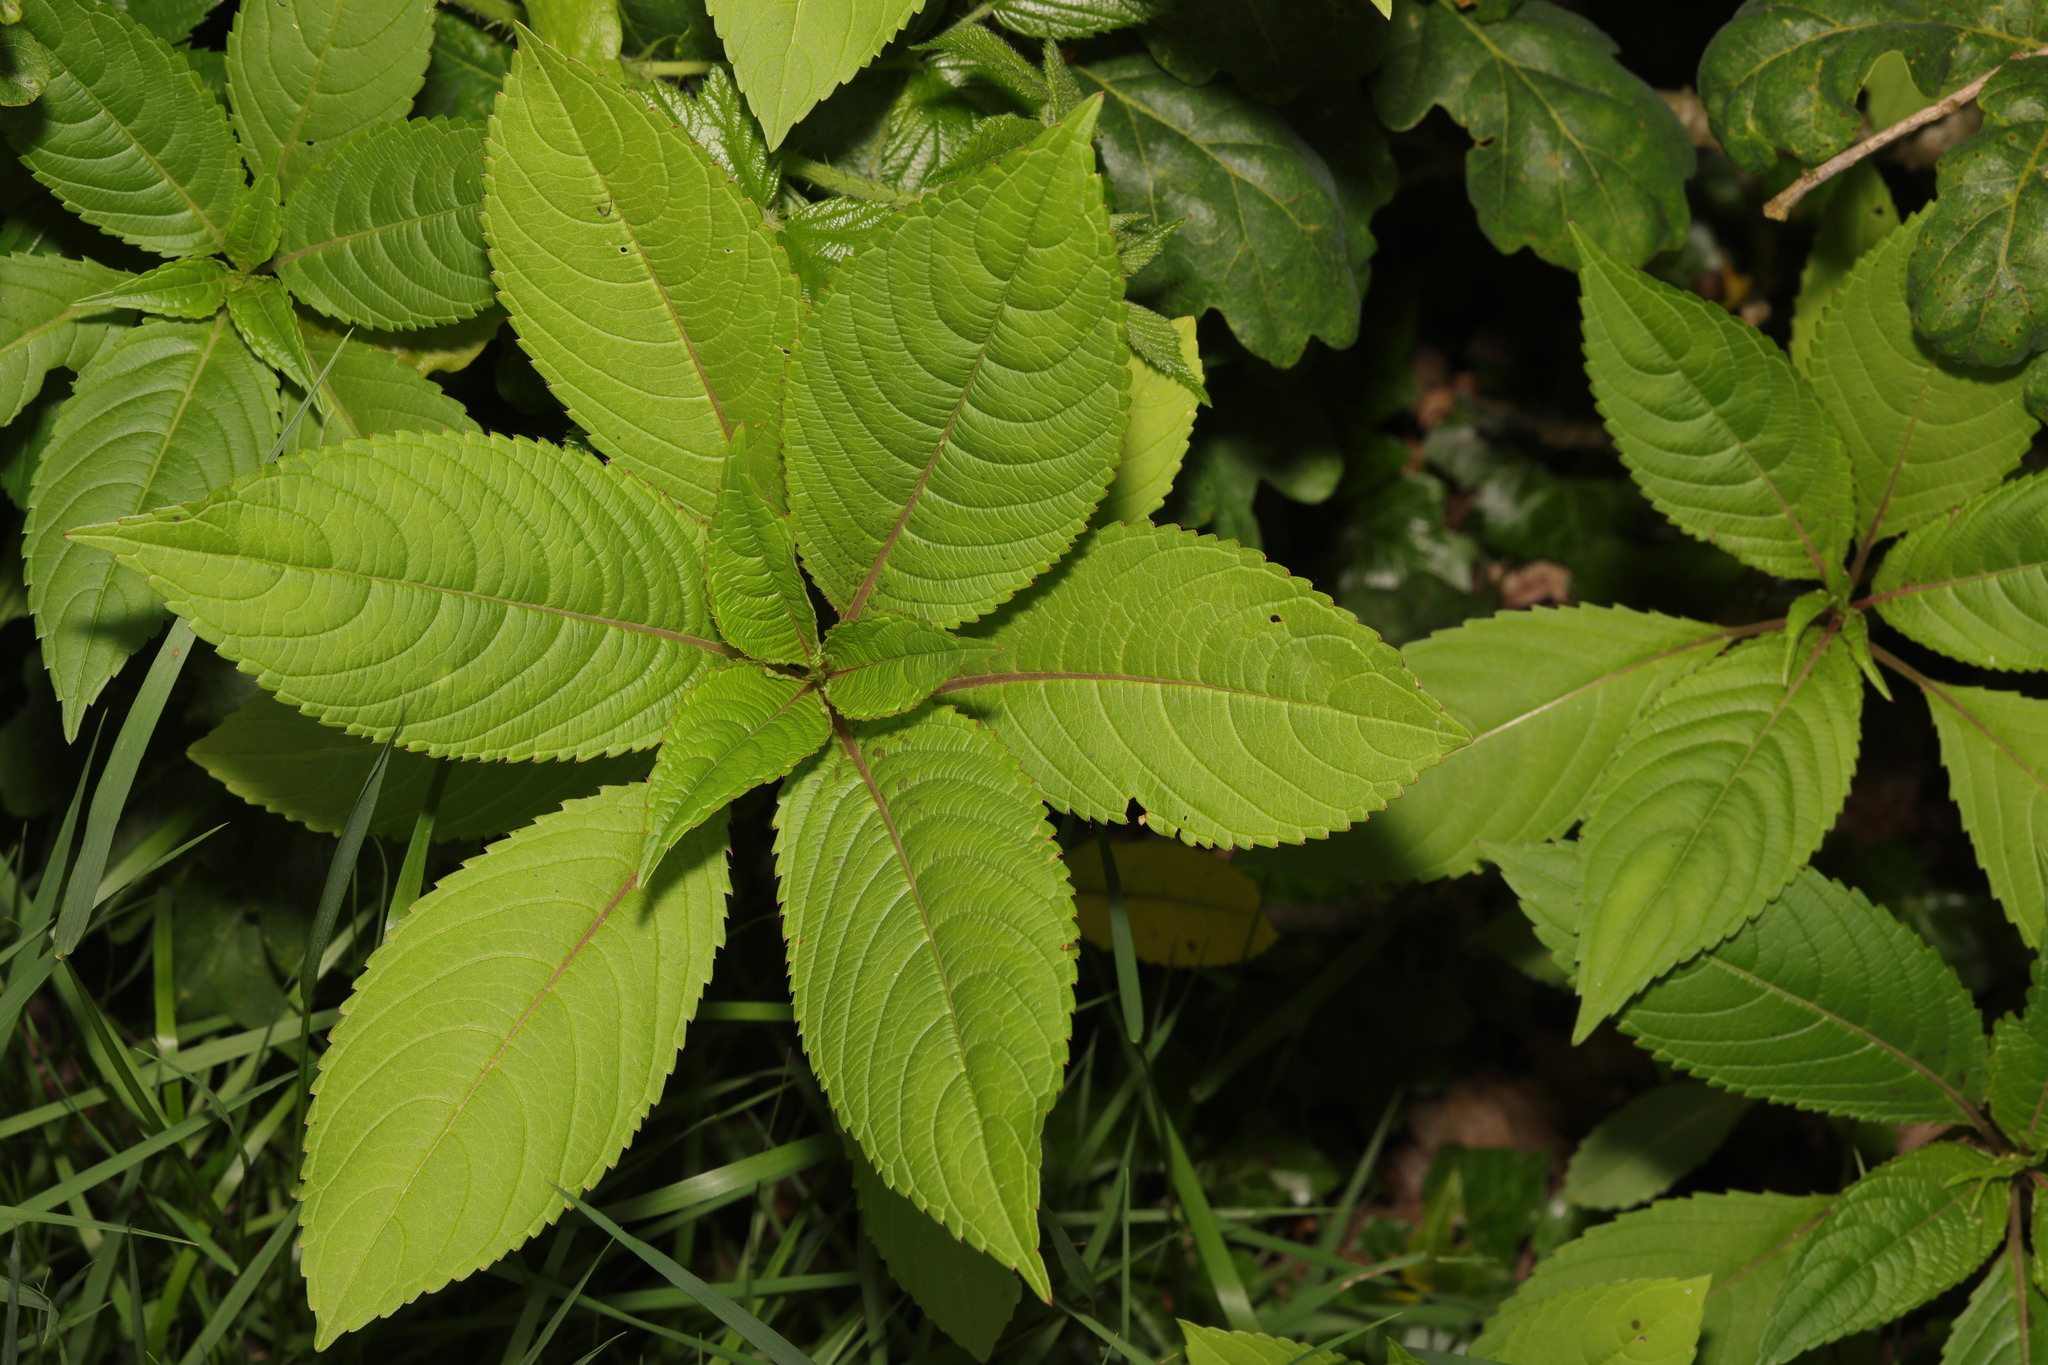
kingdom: Plantae
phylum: Tracheophyta
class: Magnoliopsida
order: Ericales
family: Balsaminaceae
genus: Impatiens
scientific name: Impatiens glandulifera
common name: Himalayan balsam
